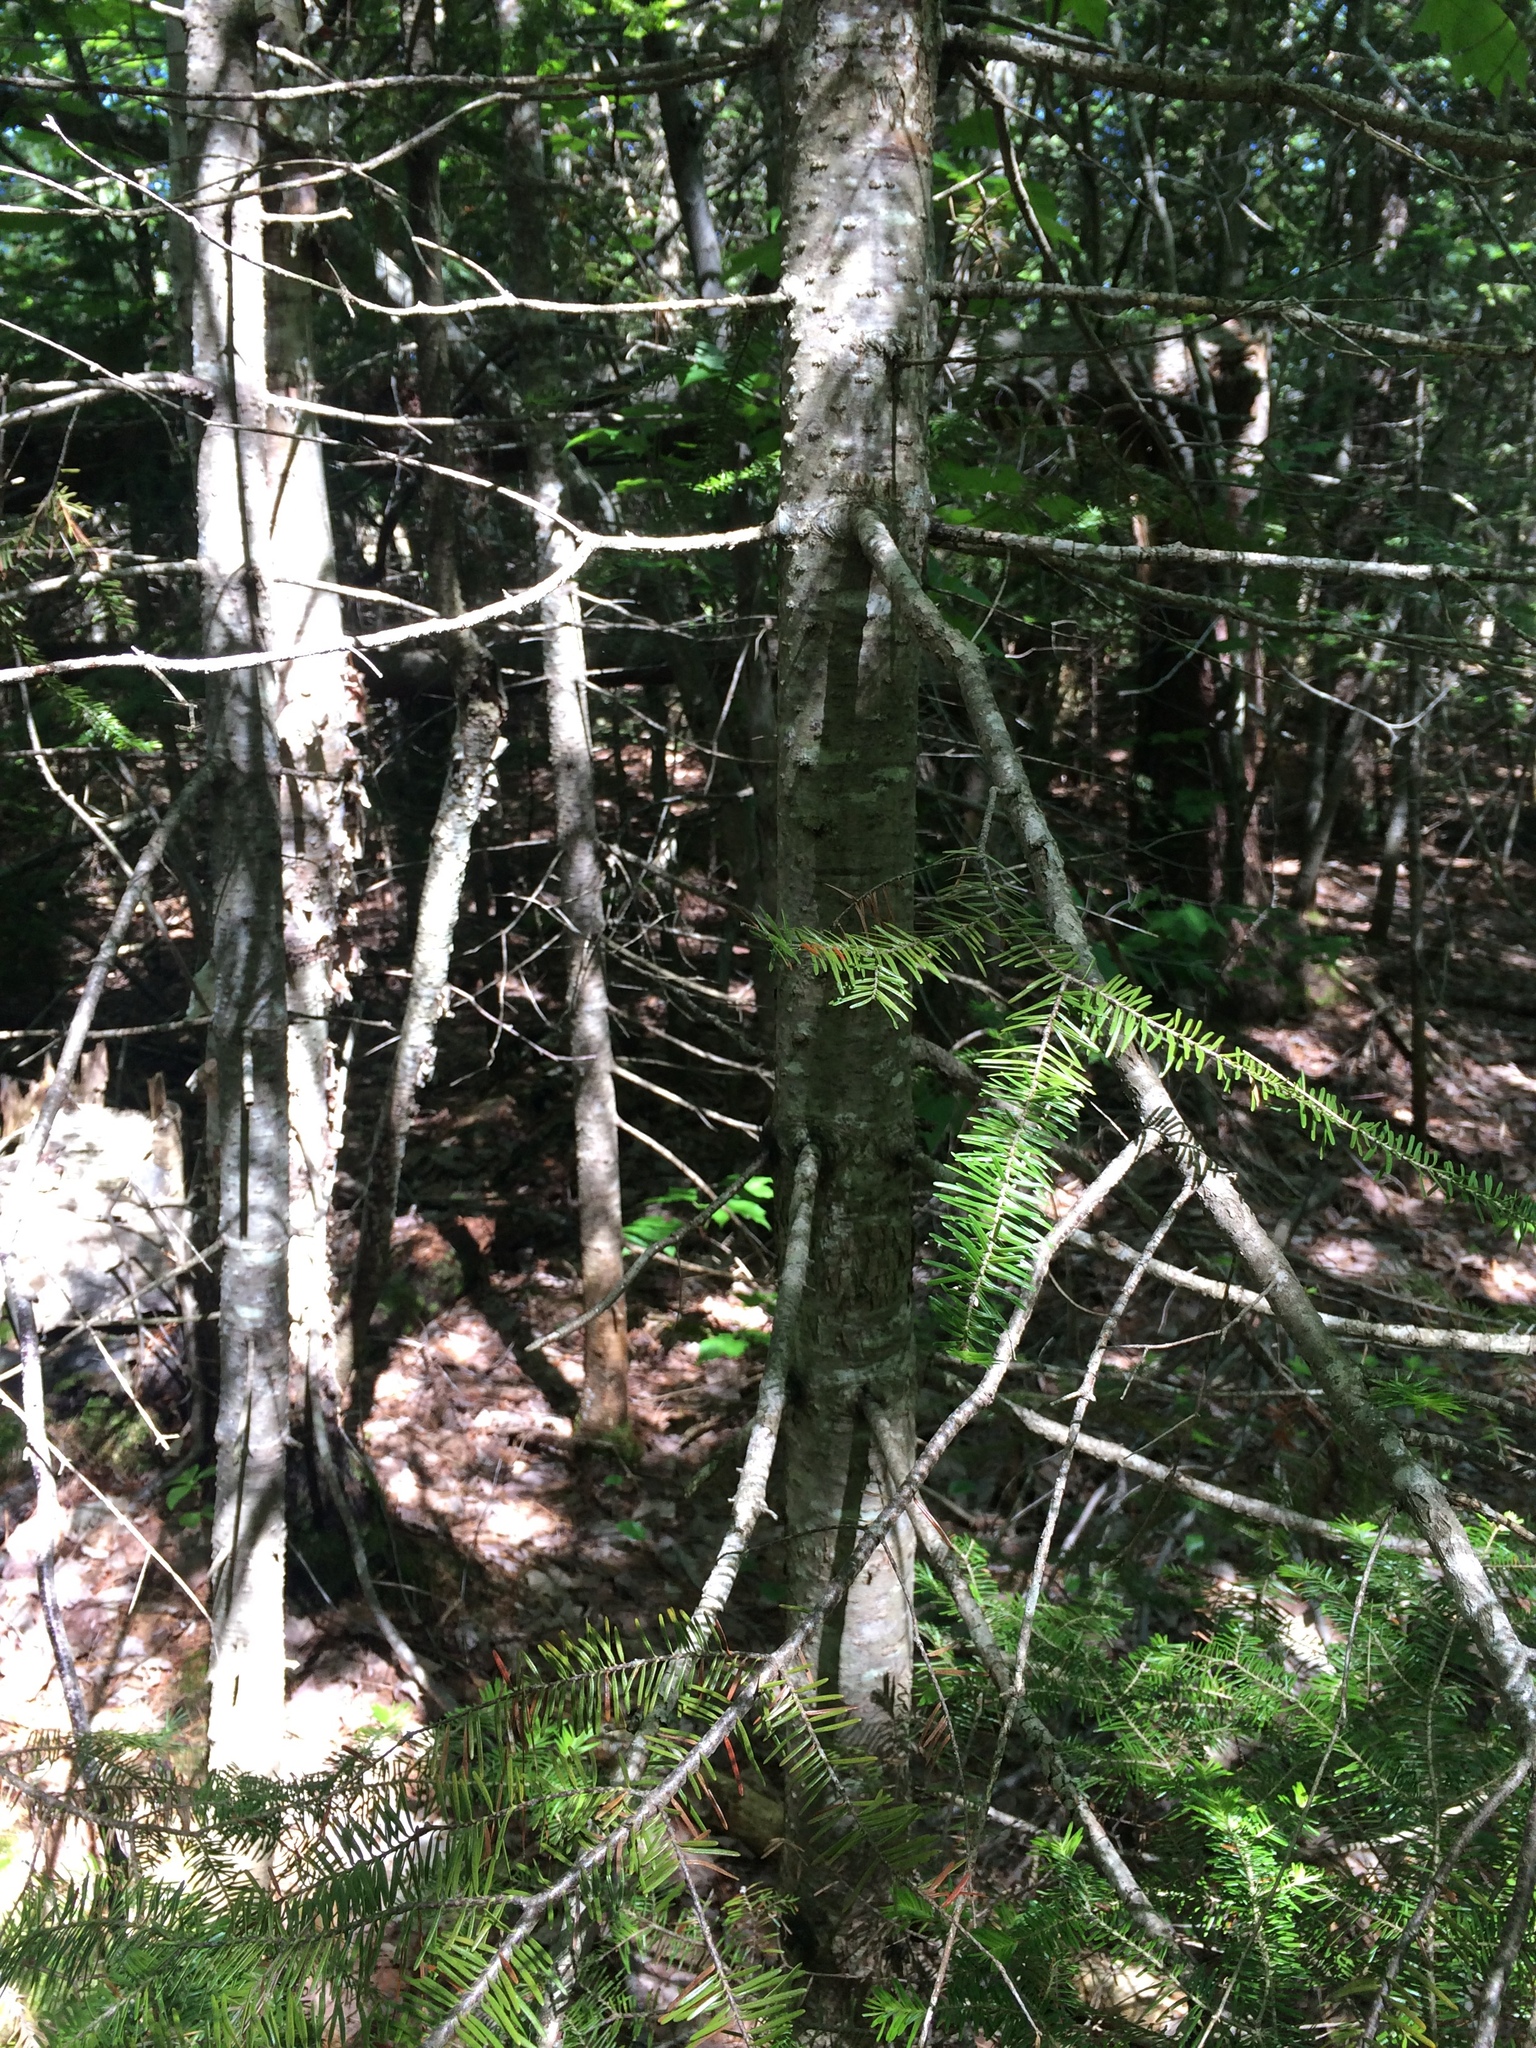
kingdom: Plantae
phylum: Tracheophyta
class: Pinopsida
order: Pinales
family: Pinaceae
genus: Abies
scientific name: Abies balsamea
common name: Balsam fir
